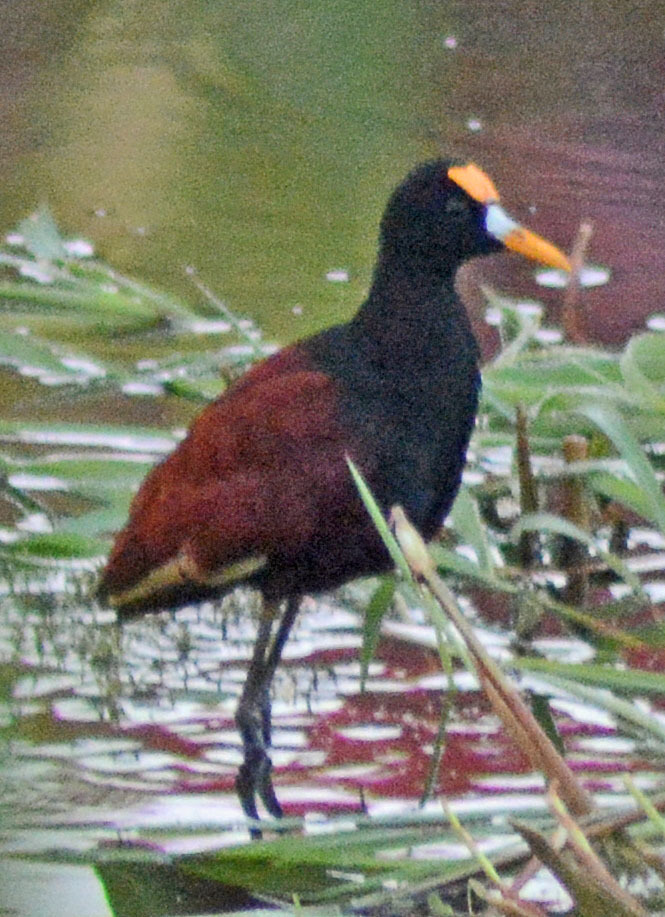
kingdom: Animalia
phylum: Chordata
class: Aves
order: Charadriiformes
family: Jacanidae
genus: Jacana
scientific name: Jacana spinosa
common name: Northern jacana
